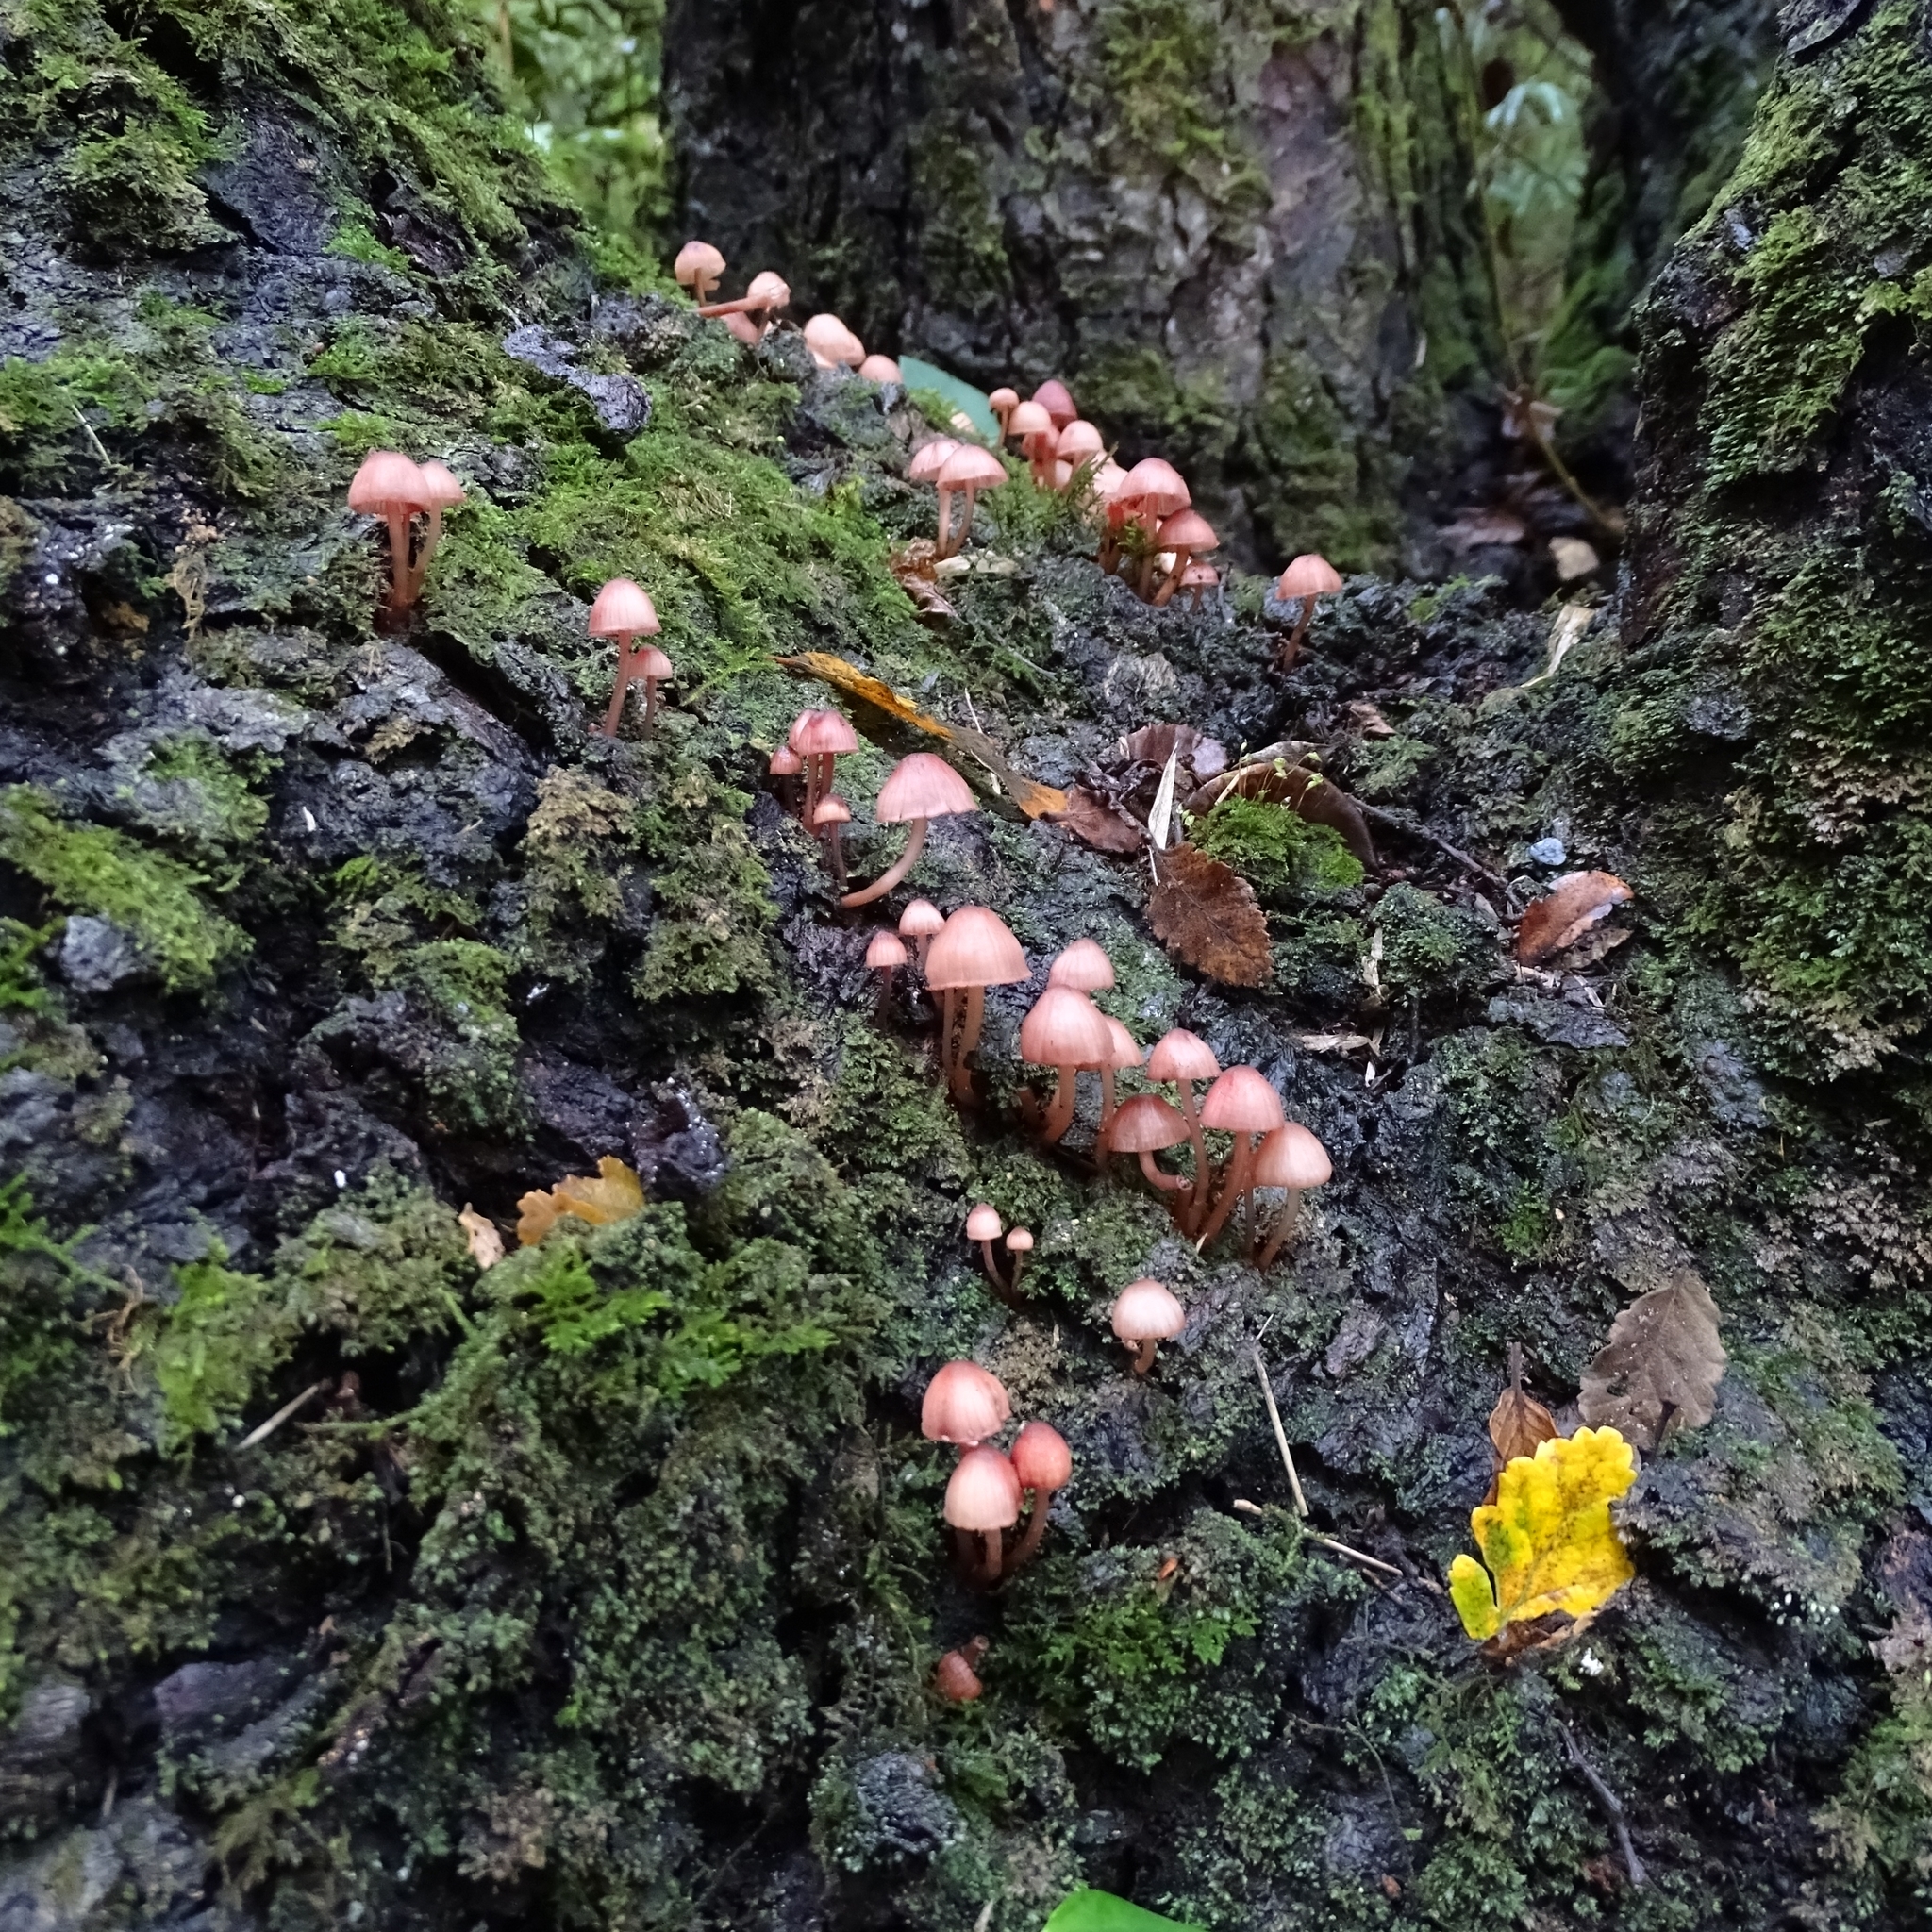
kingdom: Fungi
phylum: Basidiomycota
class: Agaricomycetes
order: Agaricales
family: Mycenaceae
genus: Mycena
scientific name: Mycena haematopus
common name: Burgundydrop bonnet
